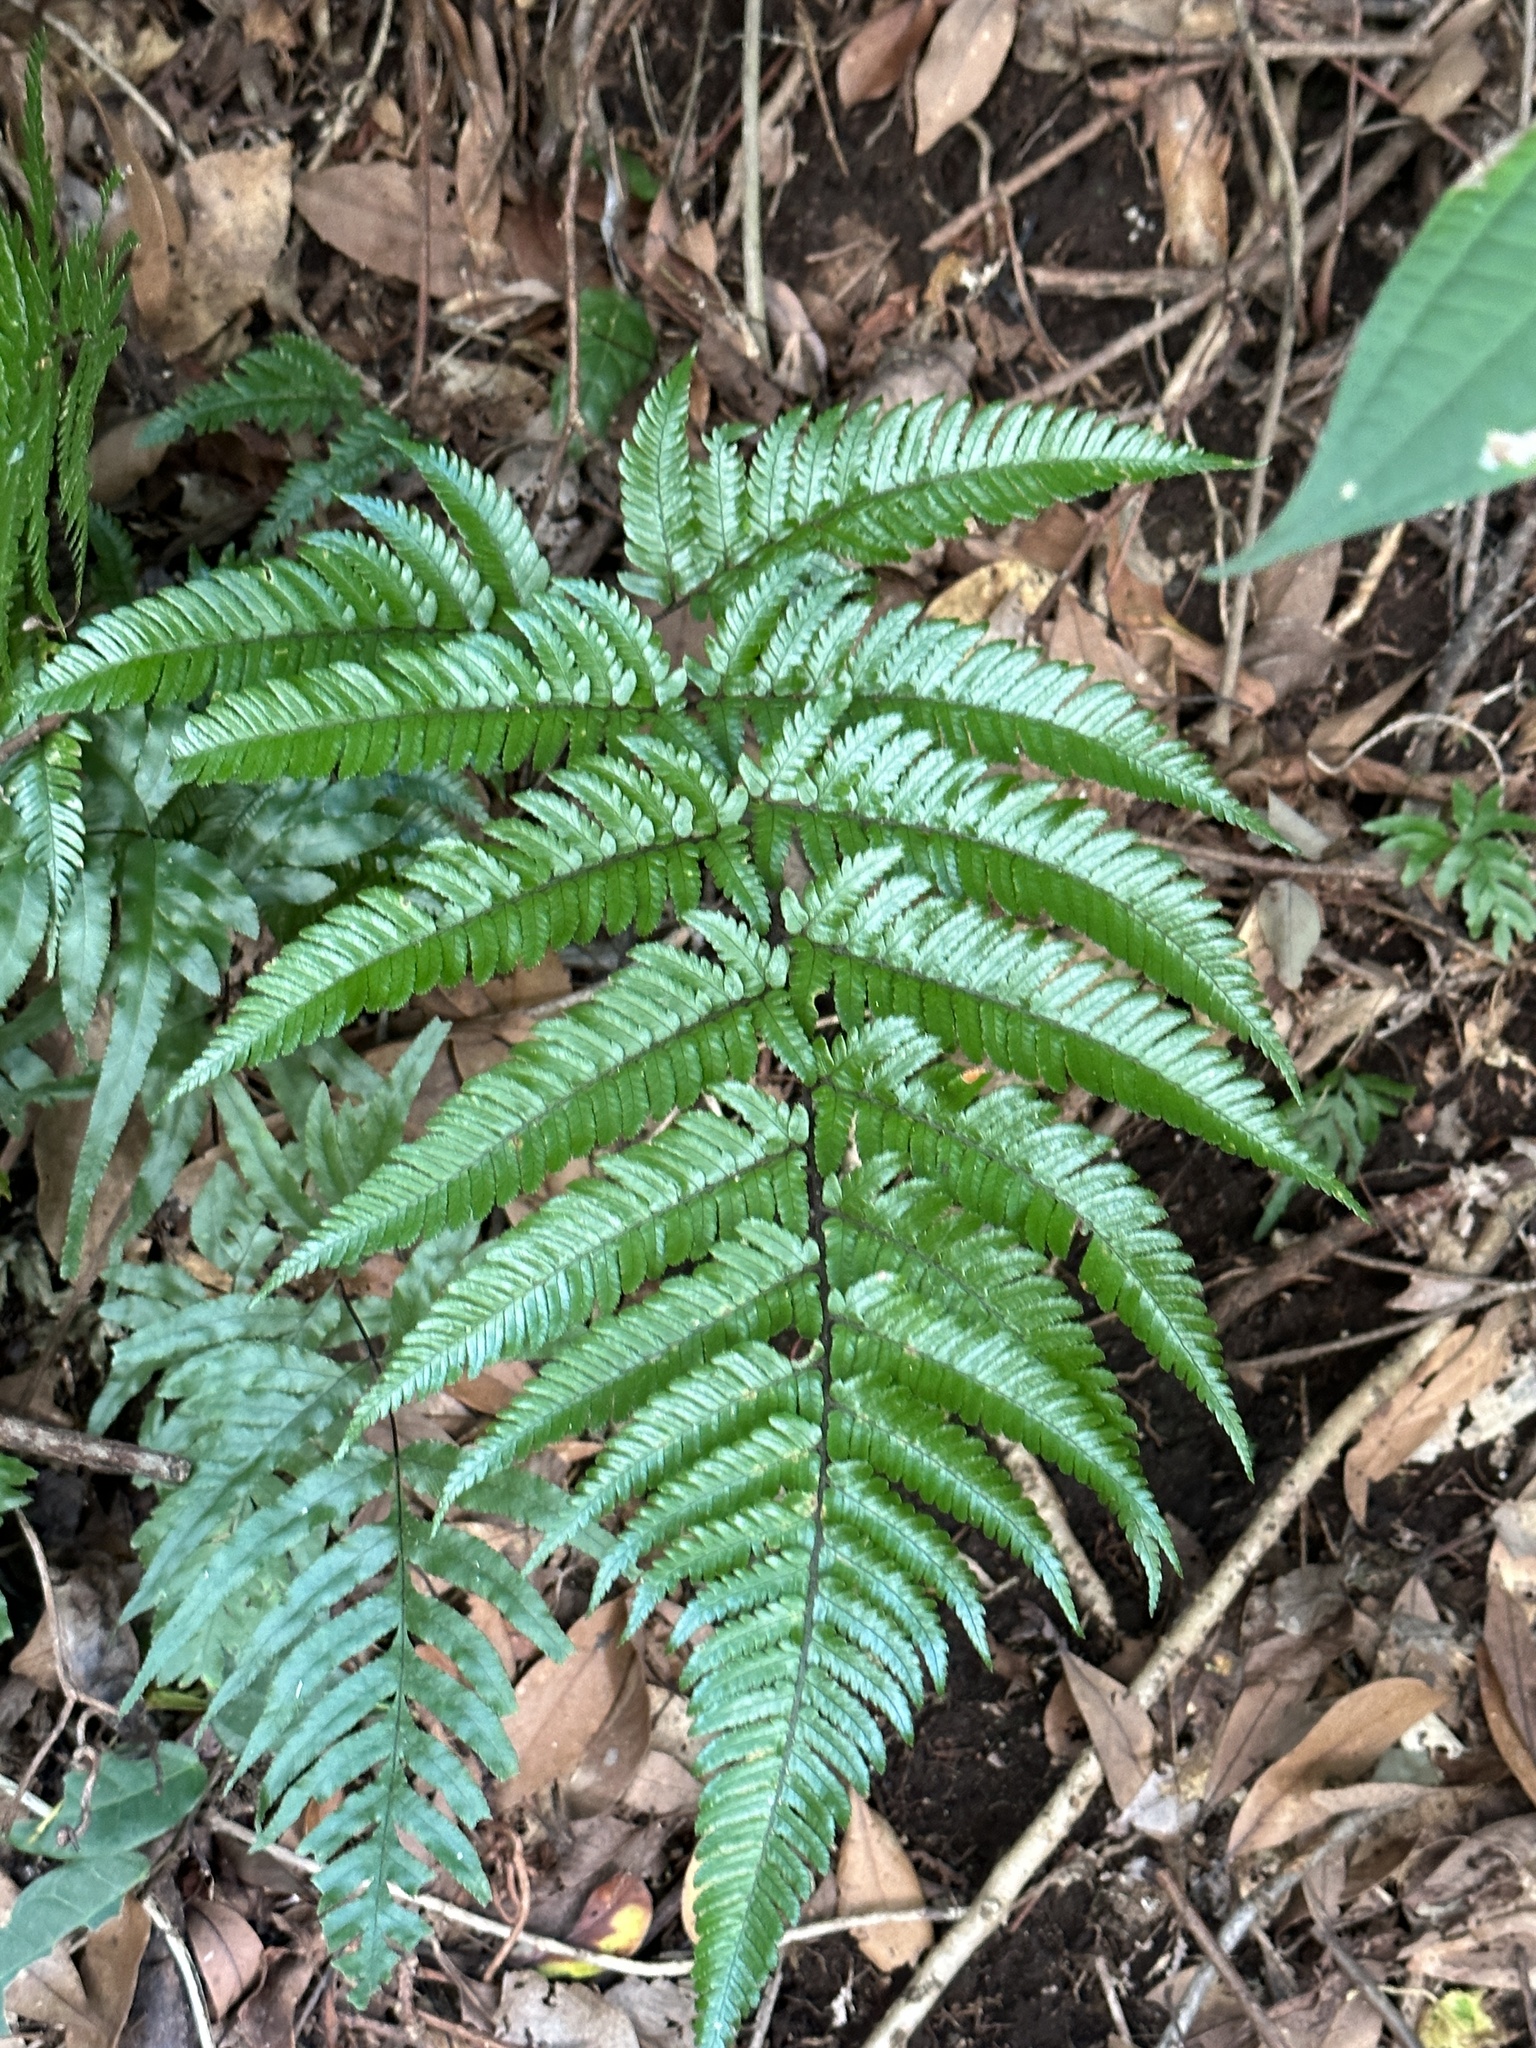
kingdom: Plantae
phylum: Tracheophyta
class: Polypodiopsida
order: Polypodiales
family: Dryopteridaceae
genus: Dryopteris
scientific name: Dryopteris sordidipes
